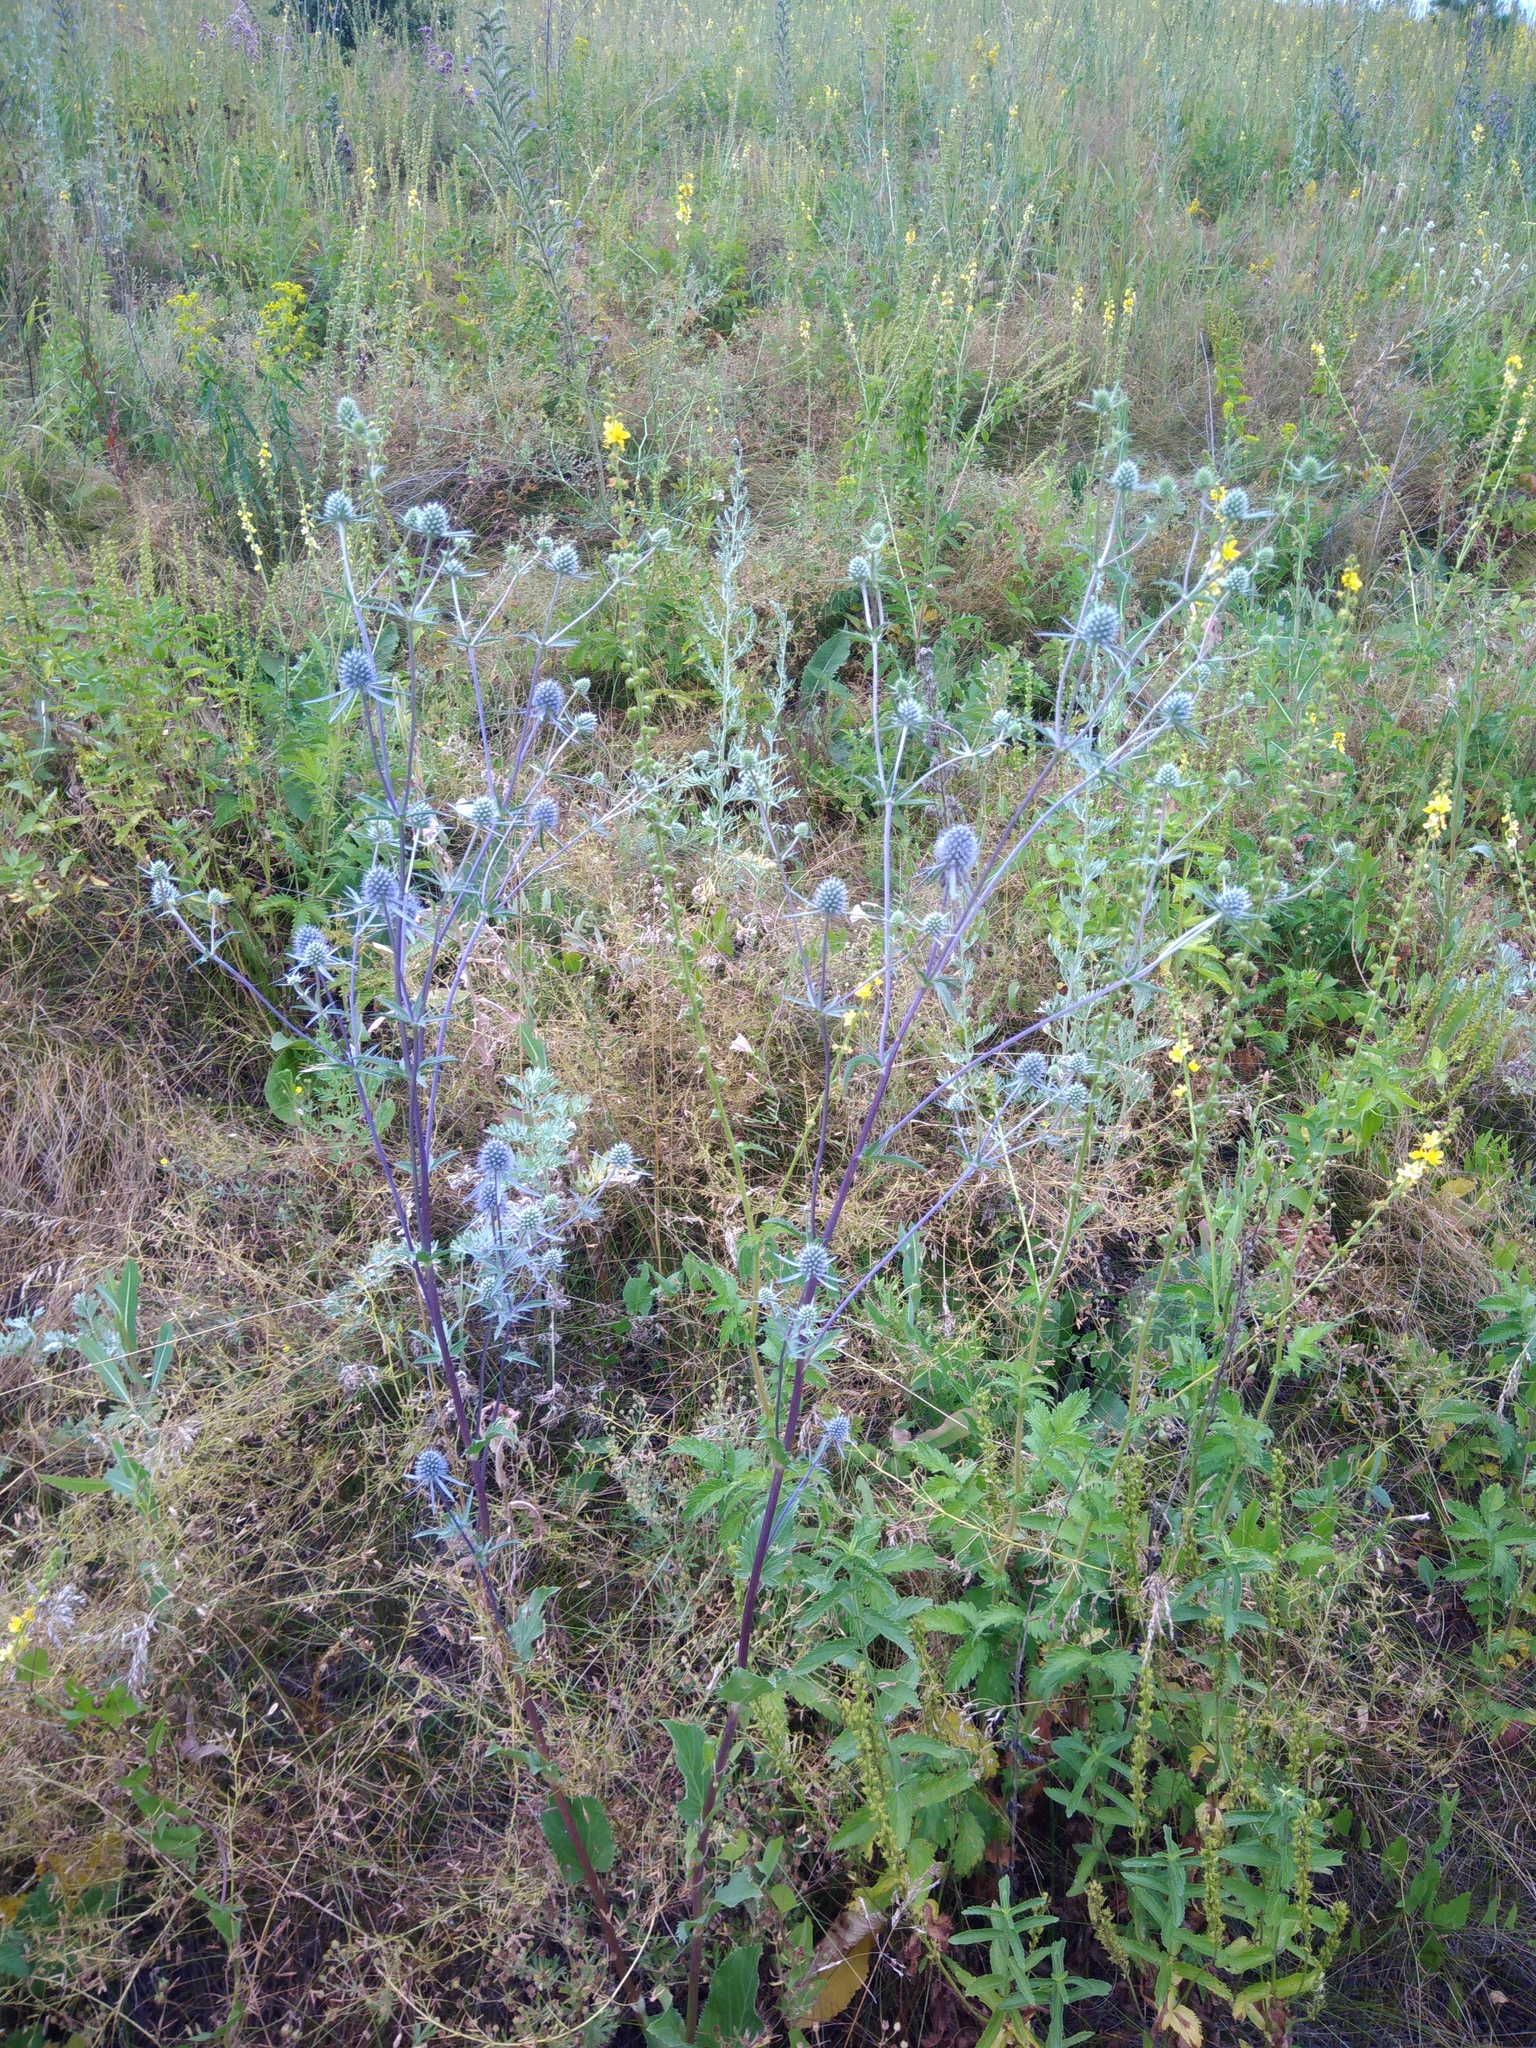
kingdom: Plantae
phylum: Tracheophyta
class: Magnoliopsida
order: Apiales
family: Apiaceae
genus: Eryngium
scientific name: Eryngium planum
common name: Blue eryngo
